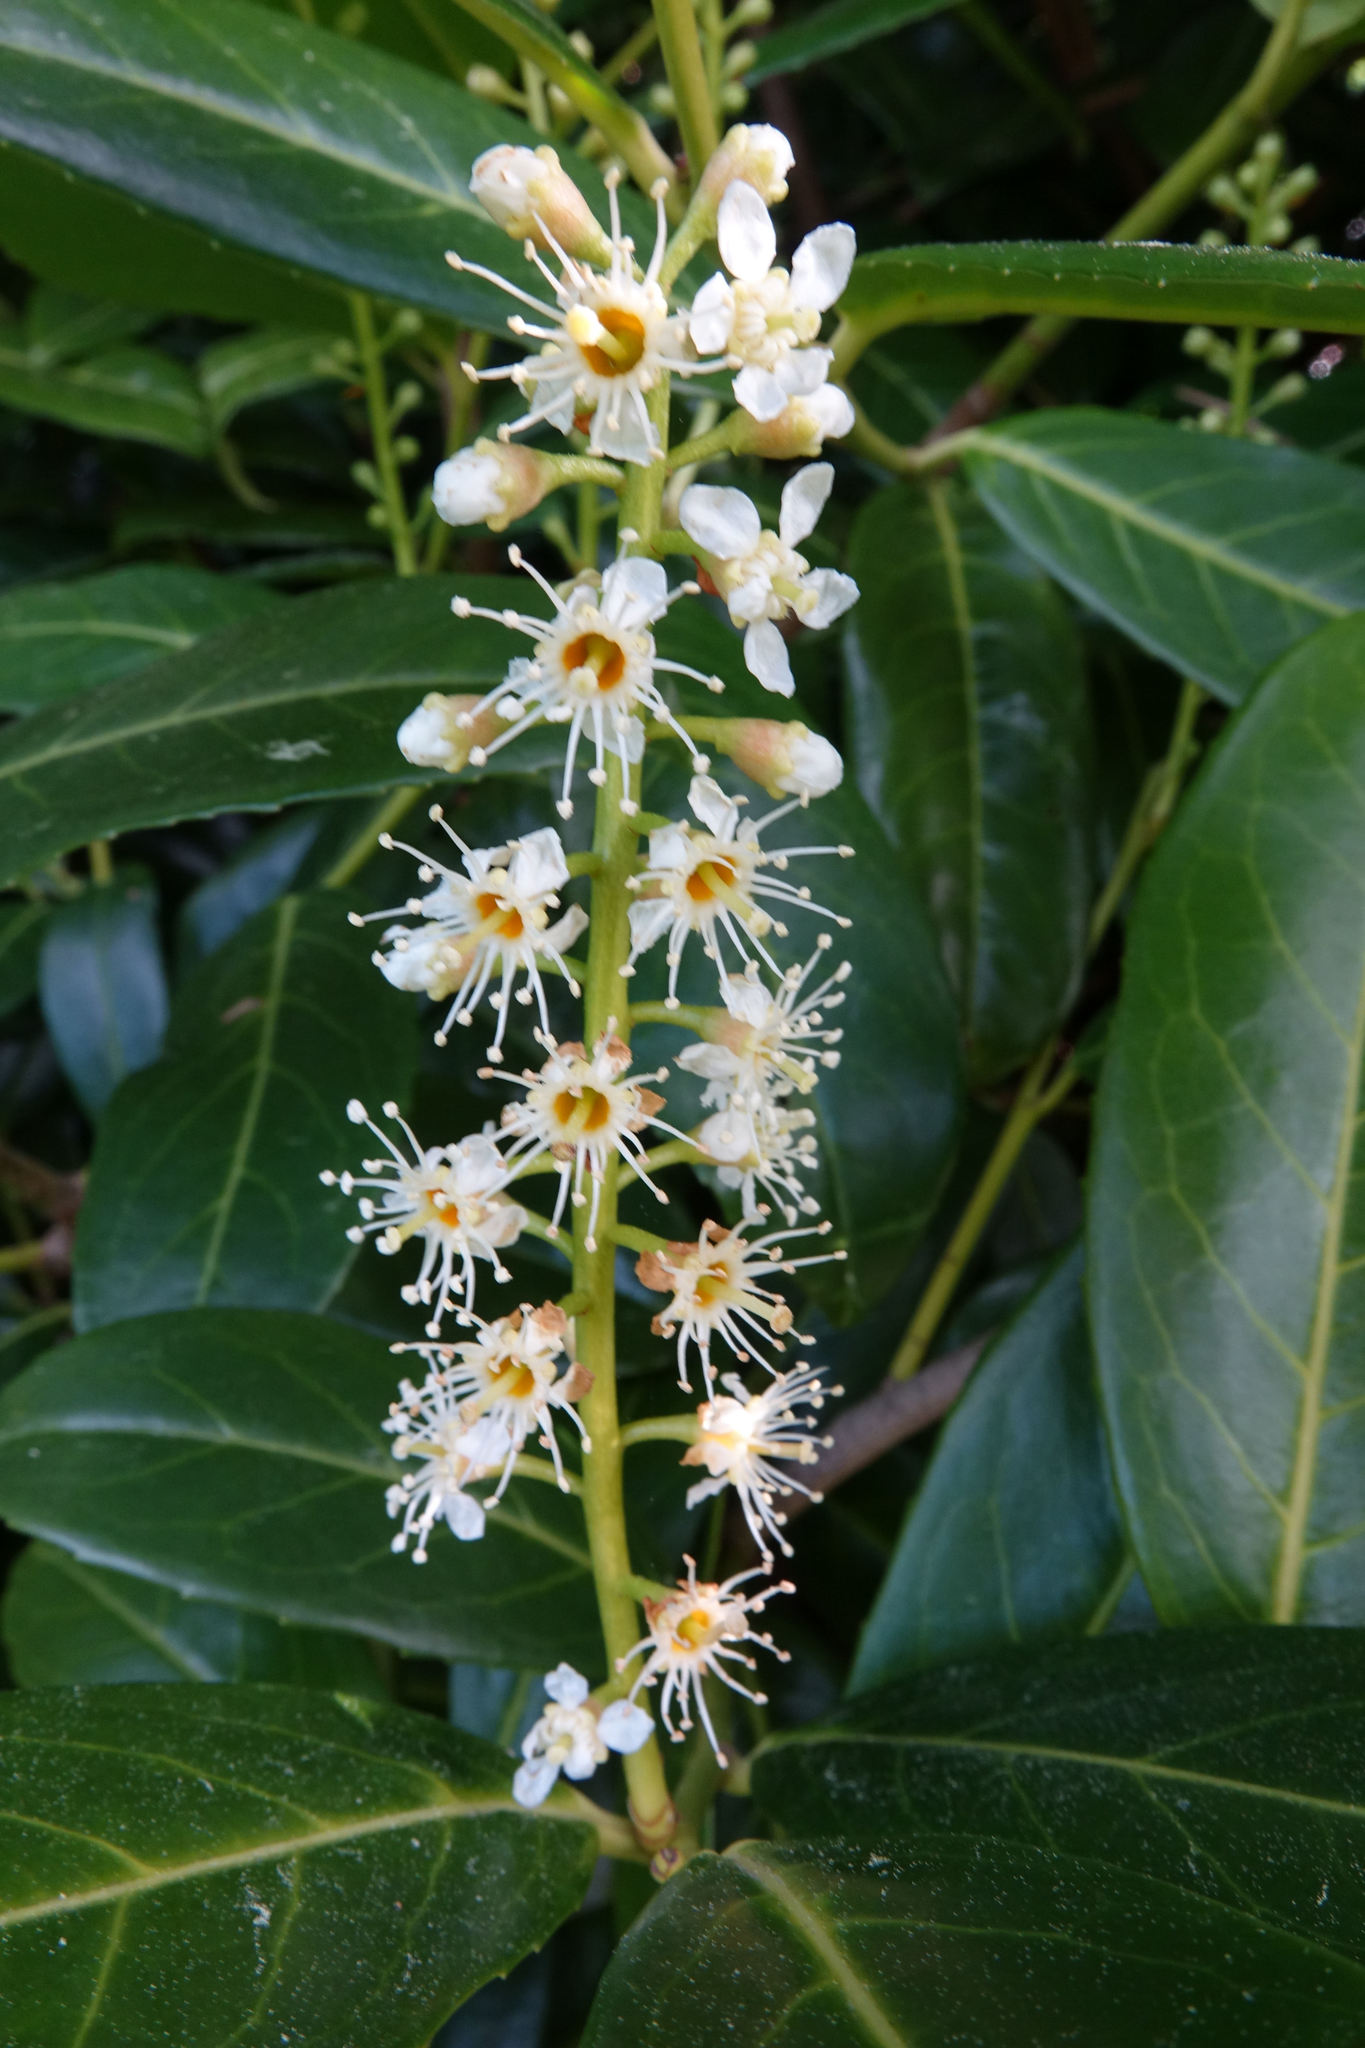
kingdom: Plantae
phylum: Tracheophyta
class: Magnoliopsida
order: Rosales
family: Rosaceae
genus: Prunus
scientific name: Prunus laurocerasus
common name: Cherry laurel
